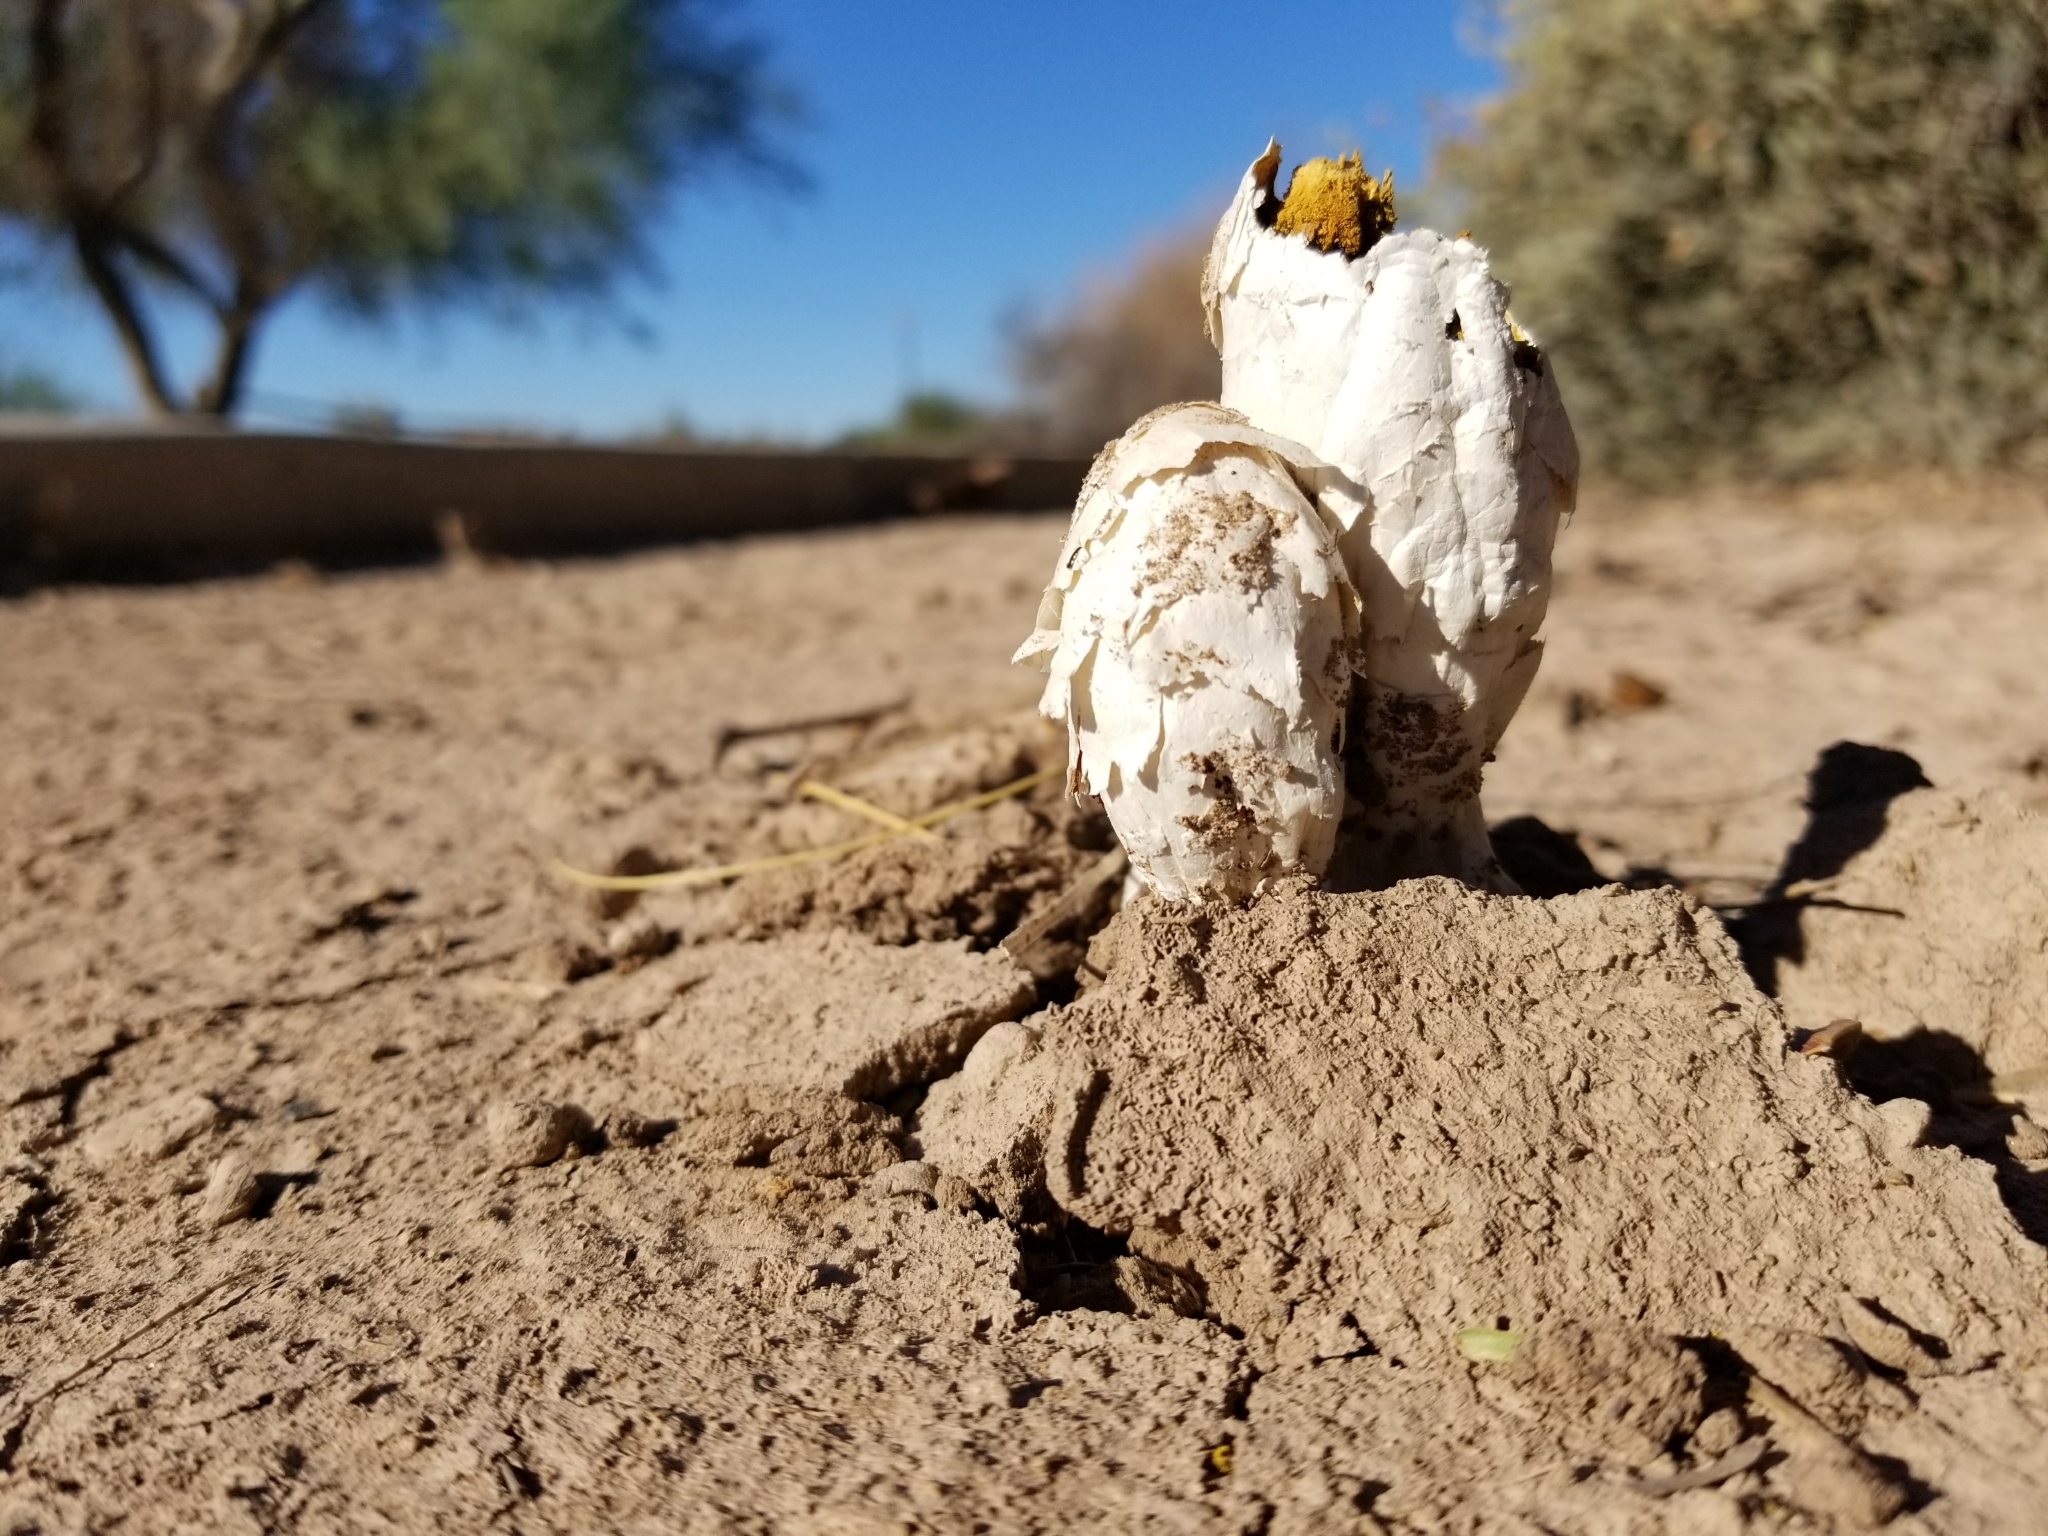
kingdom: Fungi
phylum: Basidiomycota
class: Agaricomycetes
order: Agaricales
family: Agaricaceae
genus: Podaxis
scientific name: Podaxis pistillaris
